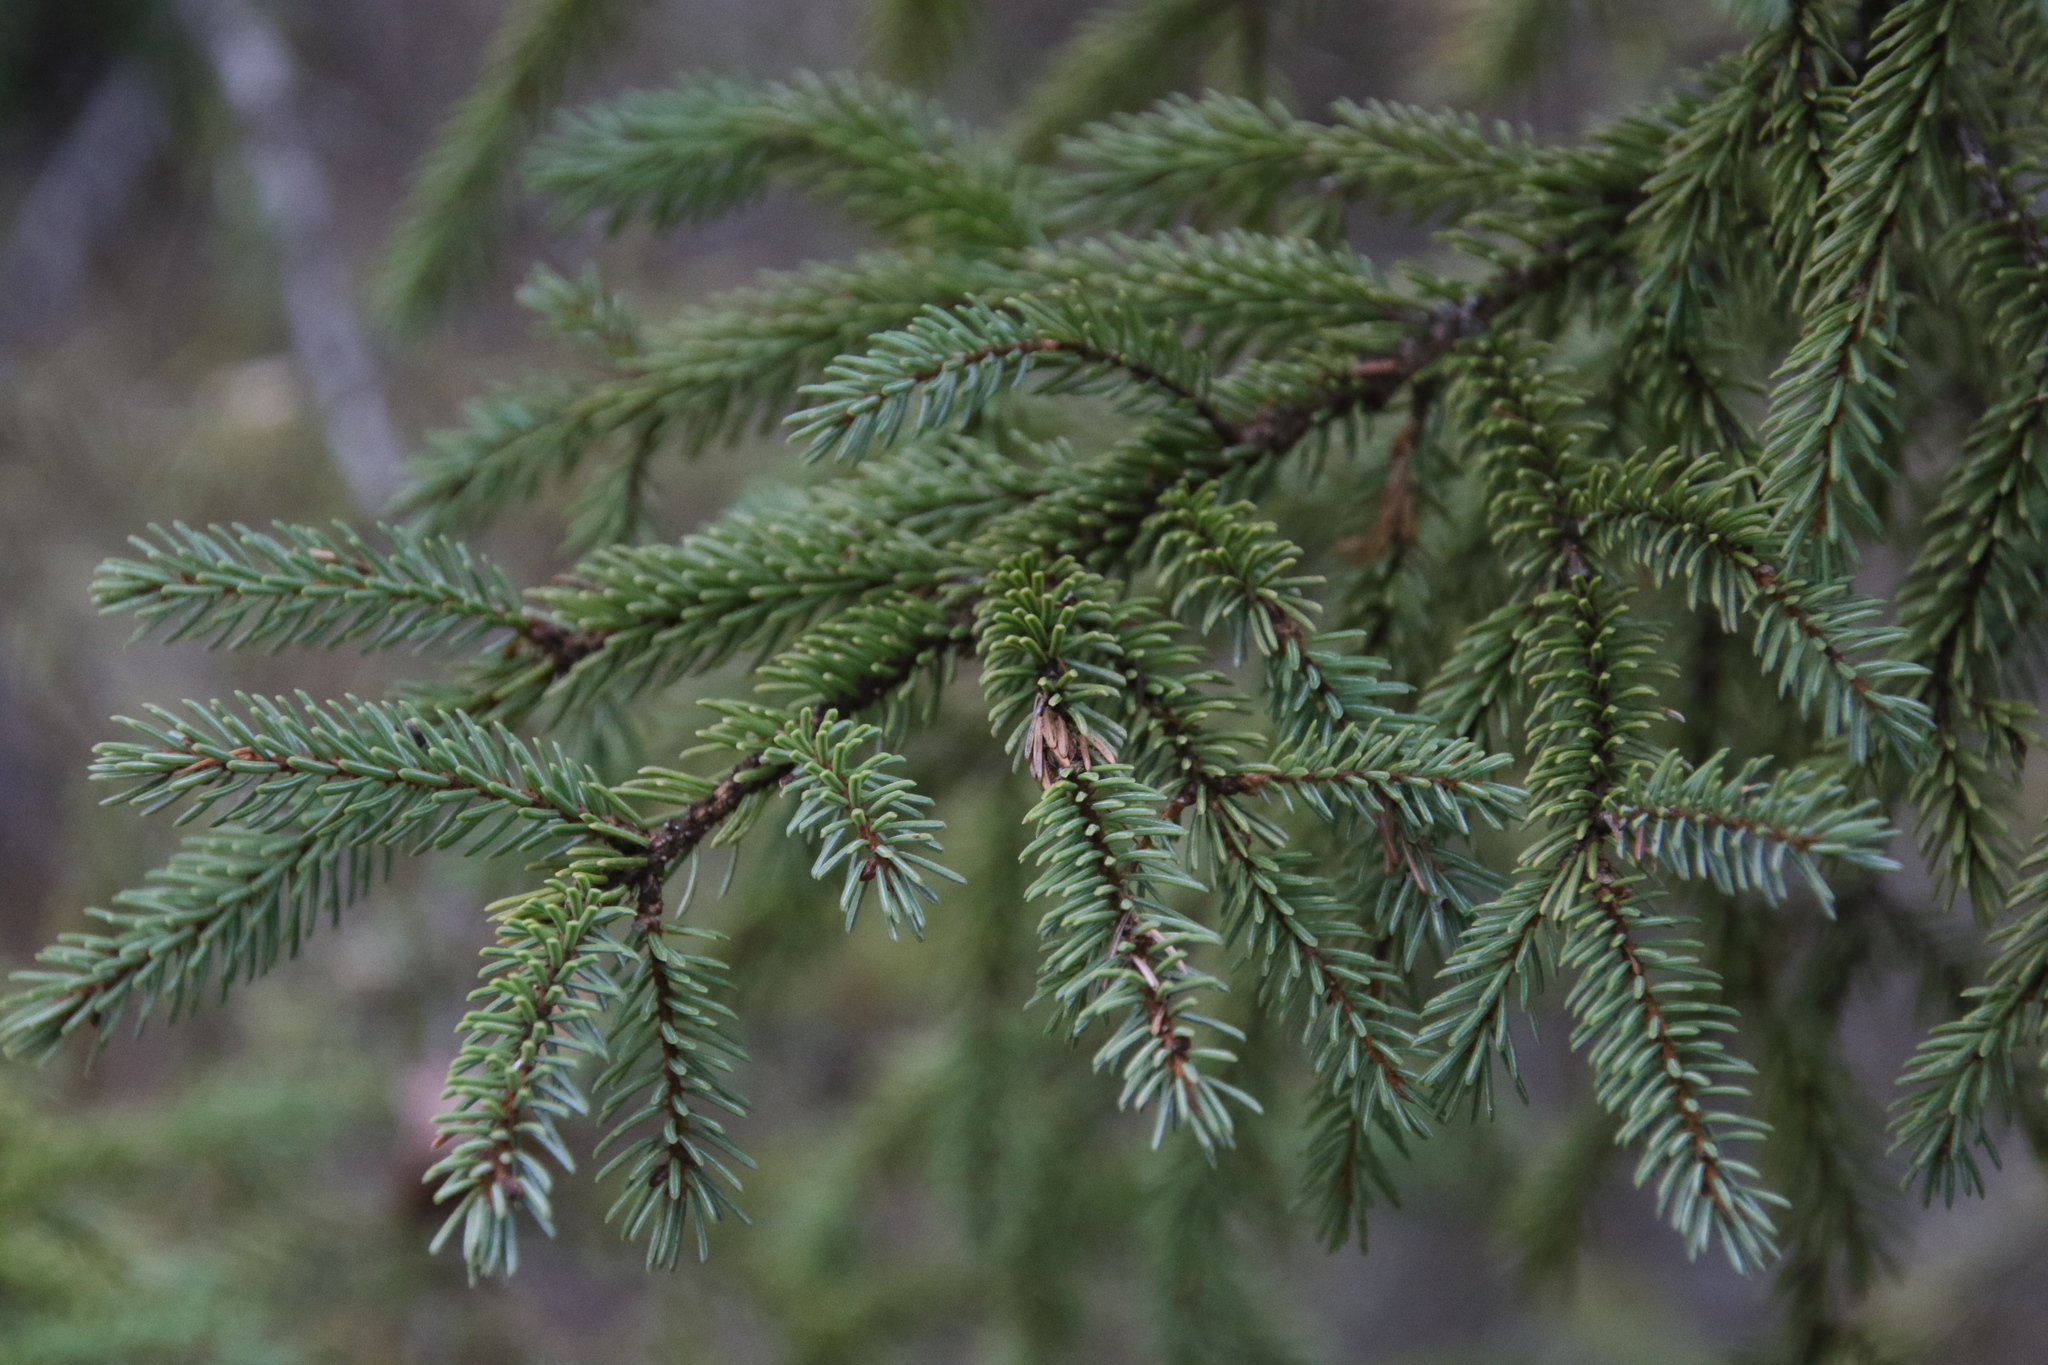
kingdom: Plantae
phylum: Tracheophyta
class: Pinopsida
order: Pinales
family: Pinaceae
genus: Picea
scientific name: Picea mariana
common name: Black spruce
